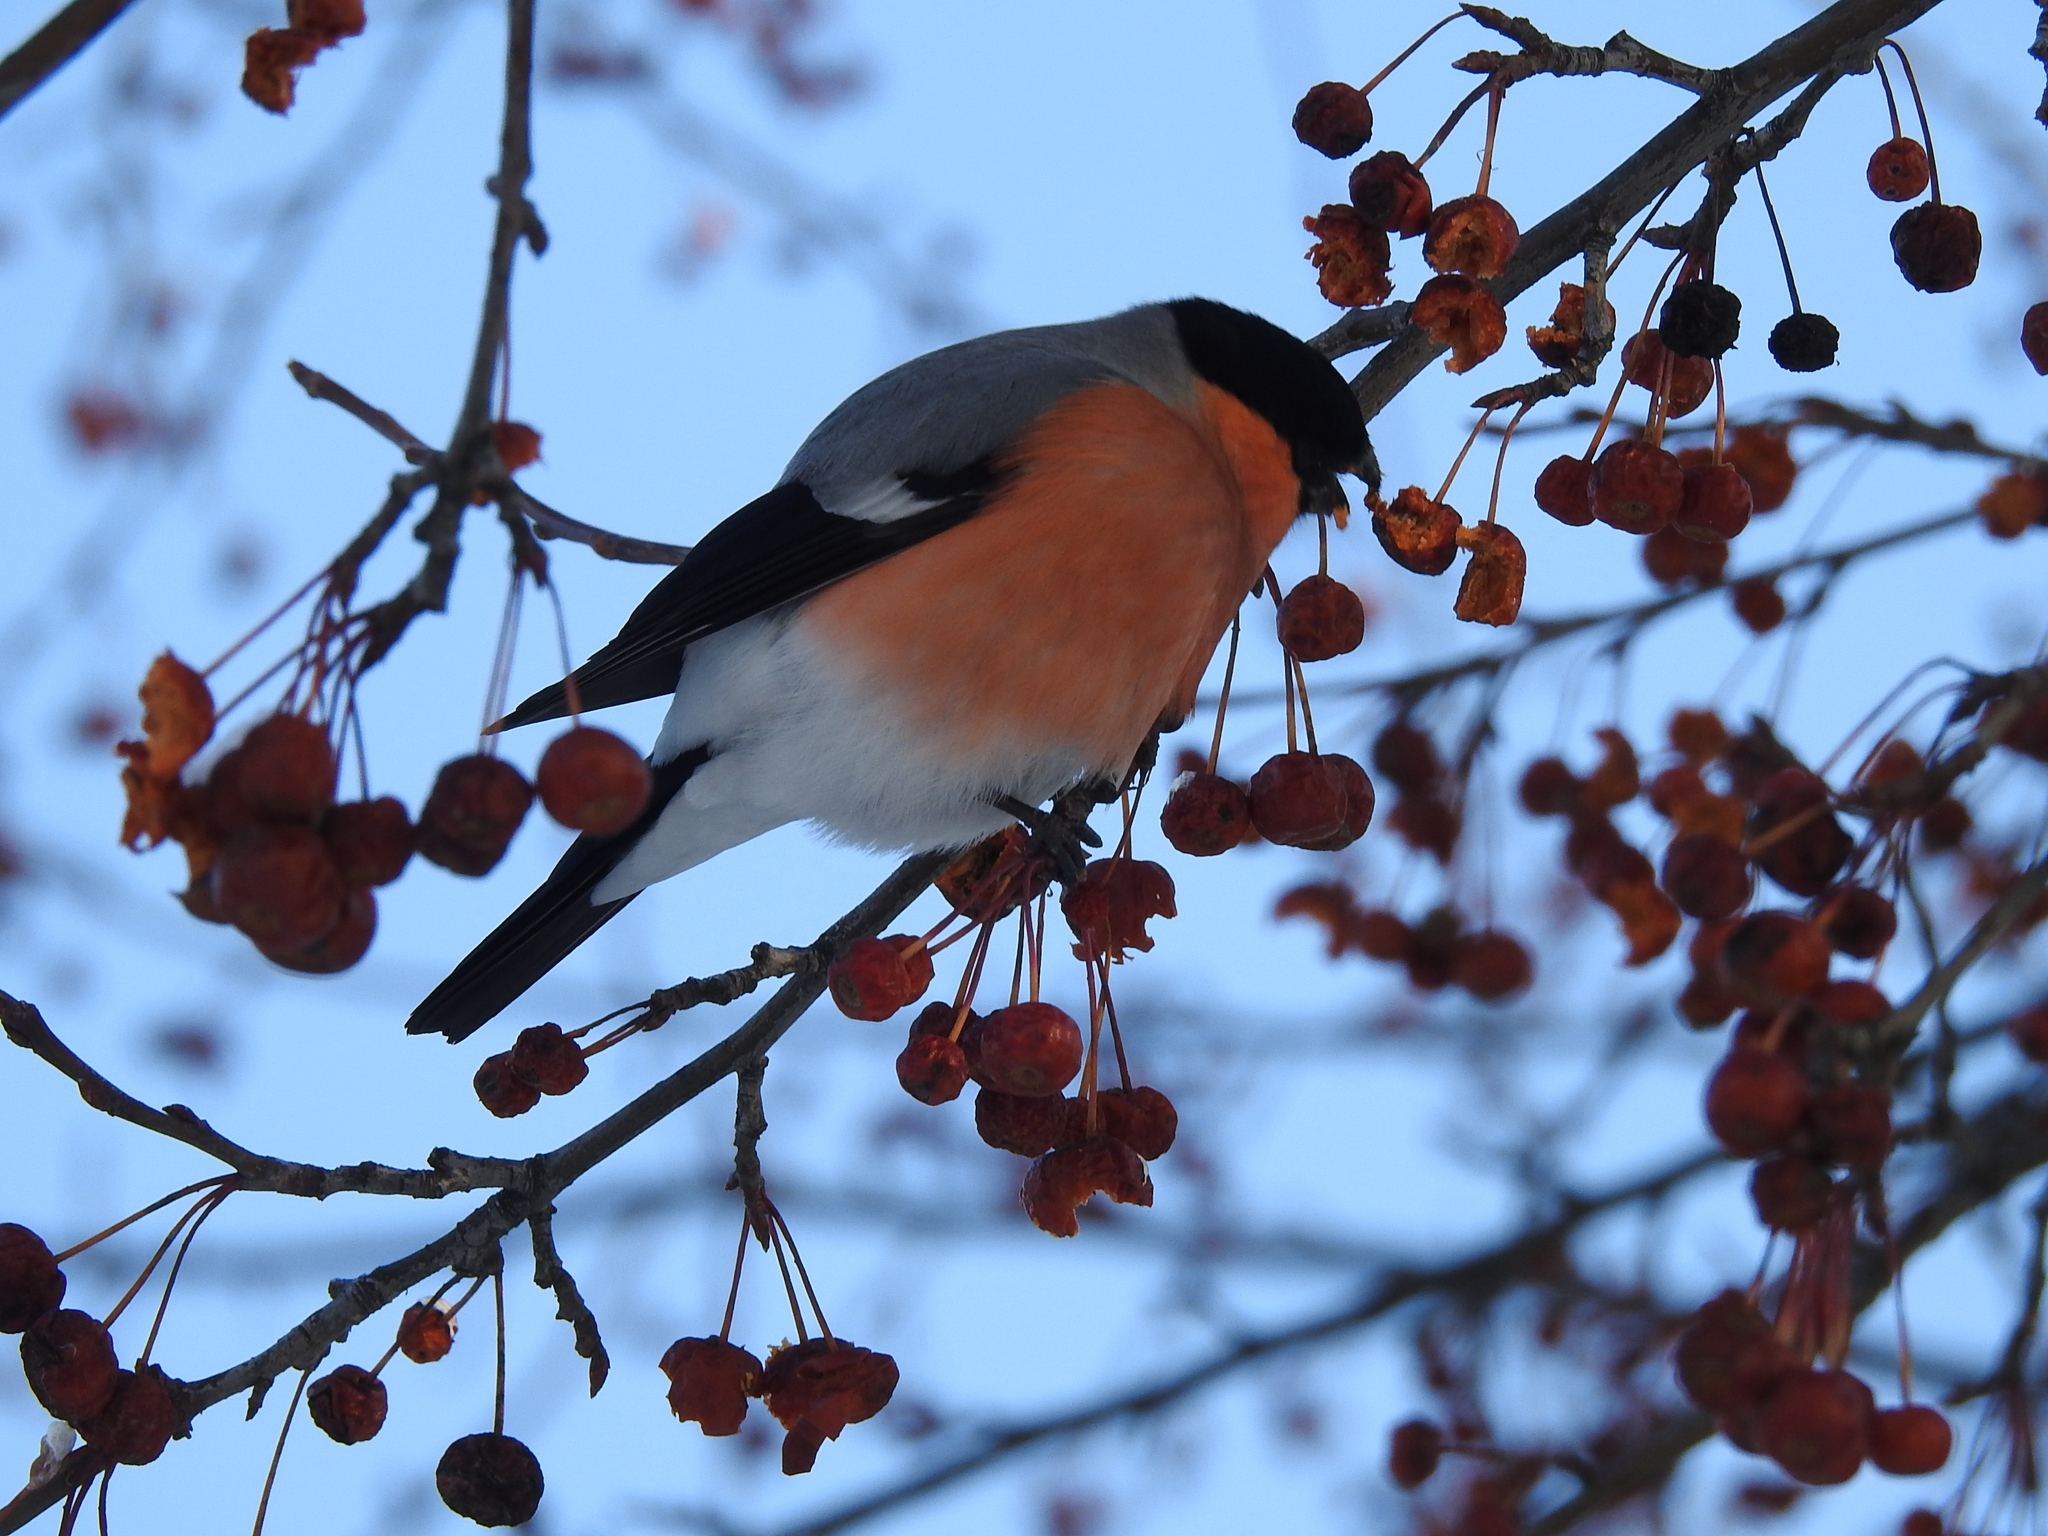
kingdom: Animalia
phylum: Chordata
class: Aves
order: Passeriformes
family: Fringillidae
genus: Pyrrhula
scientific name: Pyrrhula pyrrhula
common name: Eurasian bullfinch
